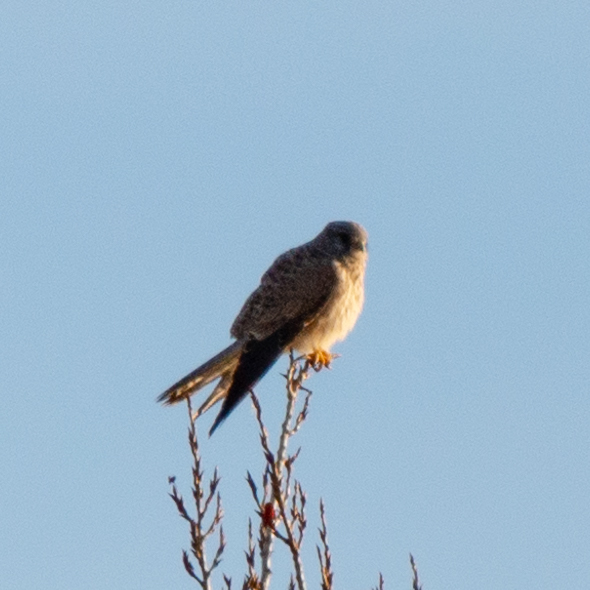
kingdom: Animalia
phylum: Chordata
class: Aves
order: Falconiformes
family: Falconidae
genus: Falco
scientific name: Falco tinnunculus
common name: Common kestrel
